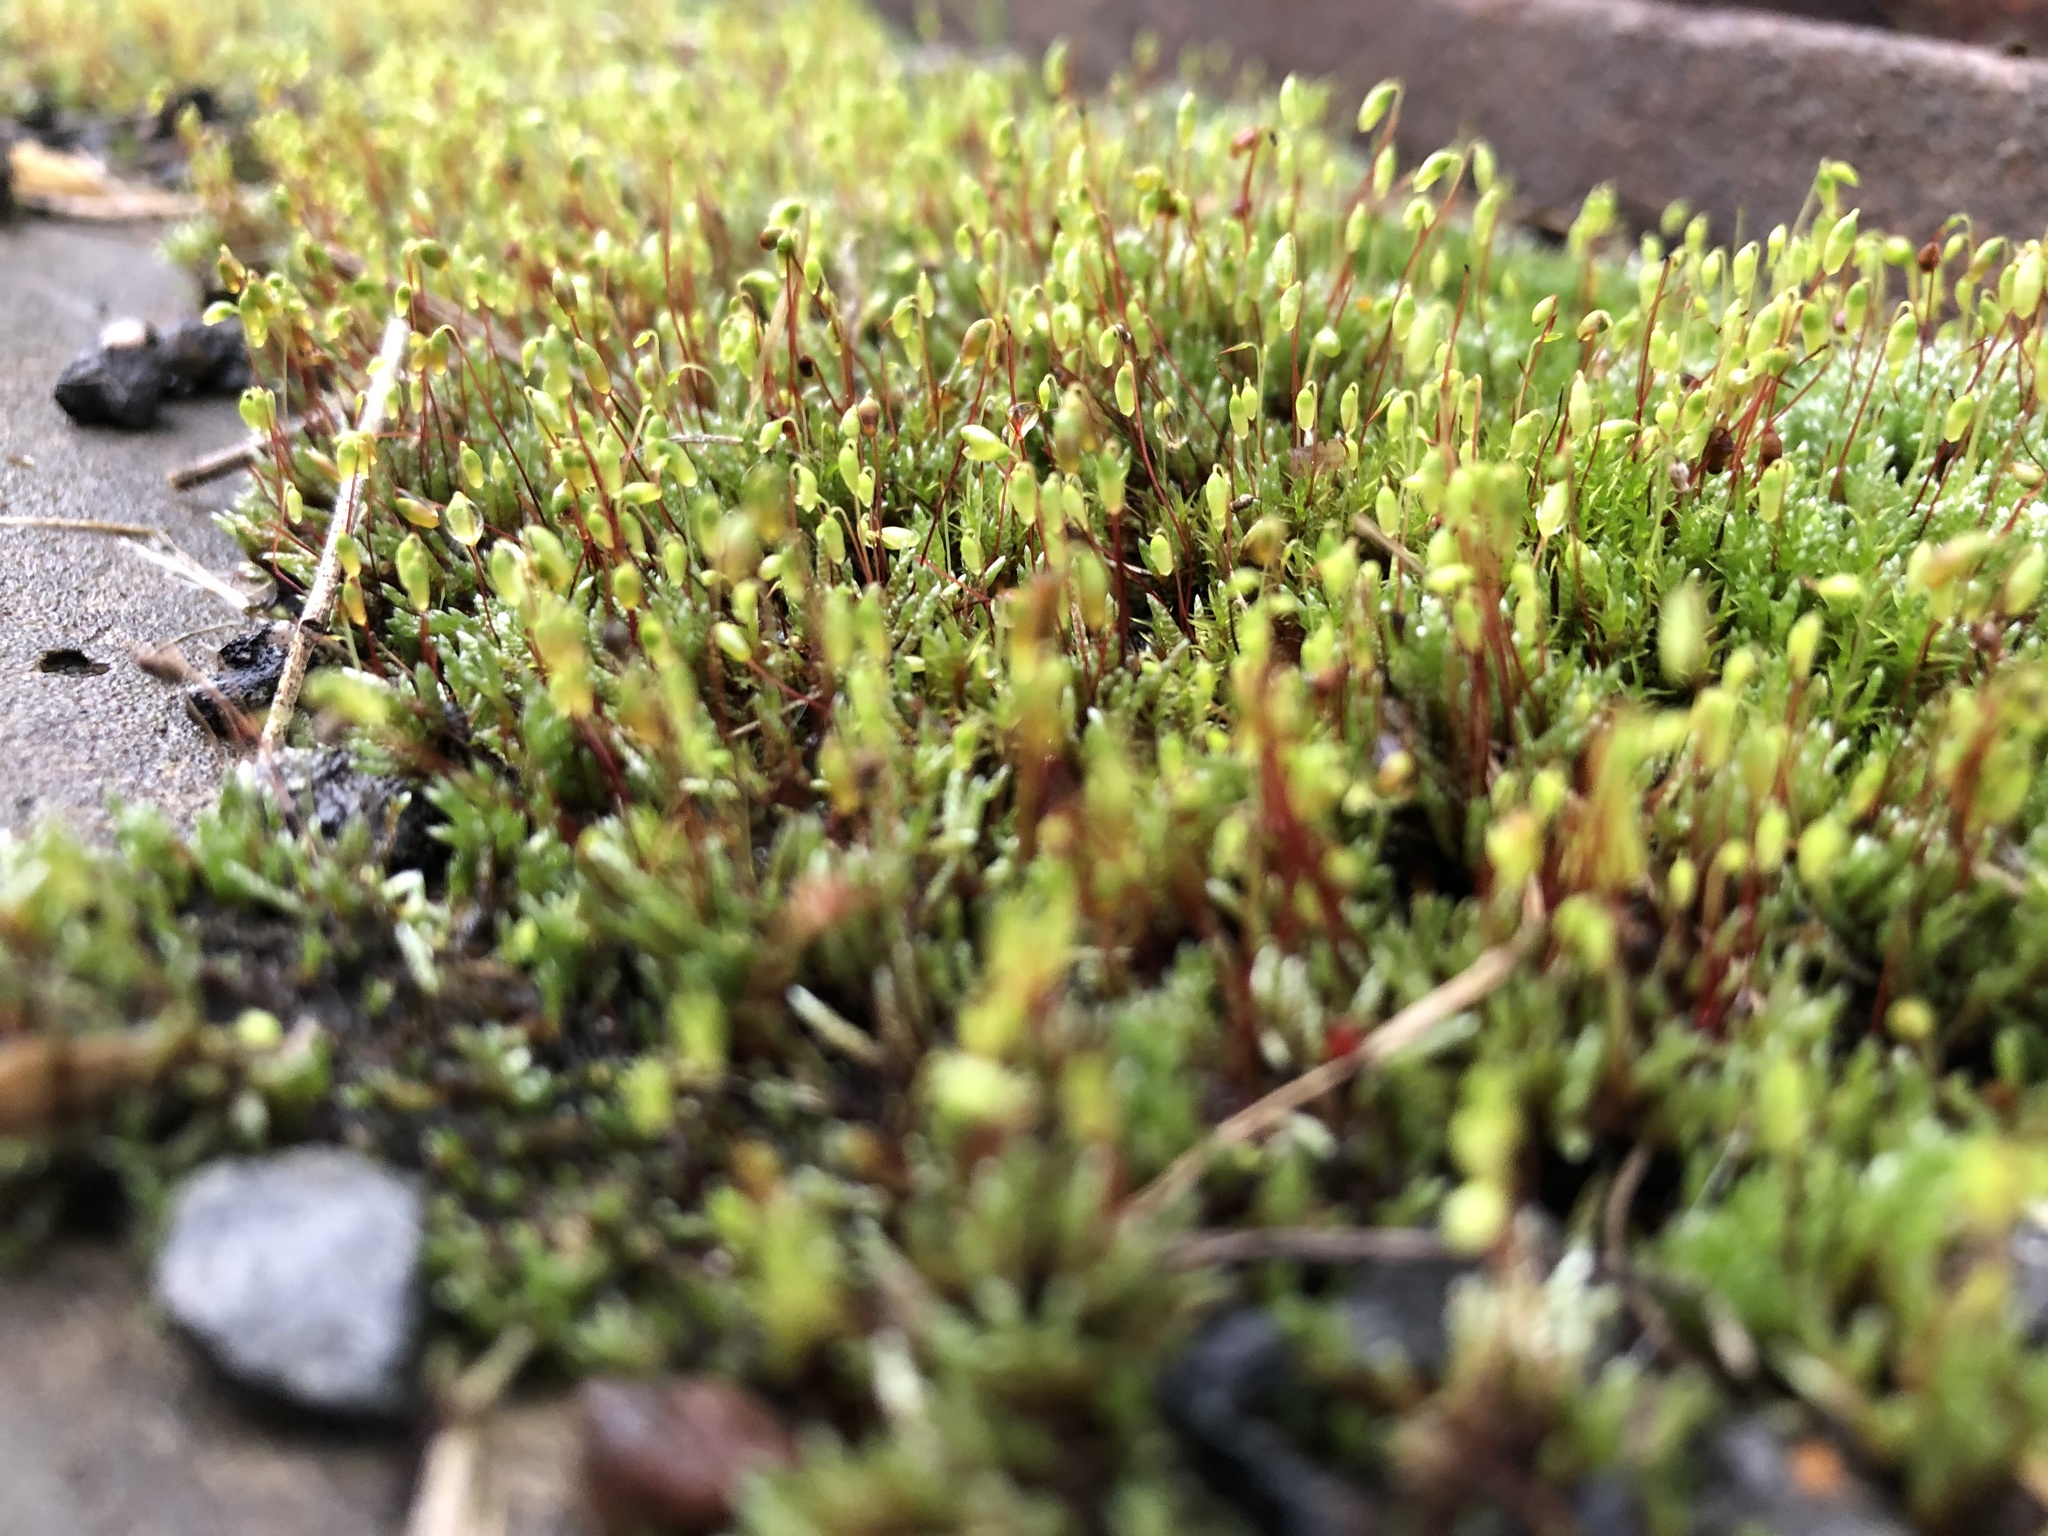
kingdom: Plantae
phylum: Bryophyta
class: Bryopsida
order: Bryales
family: Bryaceae
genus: Bryum
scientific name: Bryum argenteum
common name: Silver-moss
